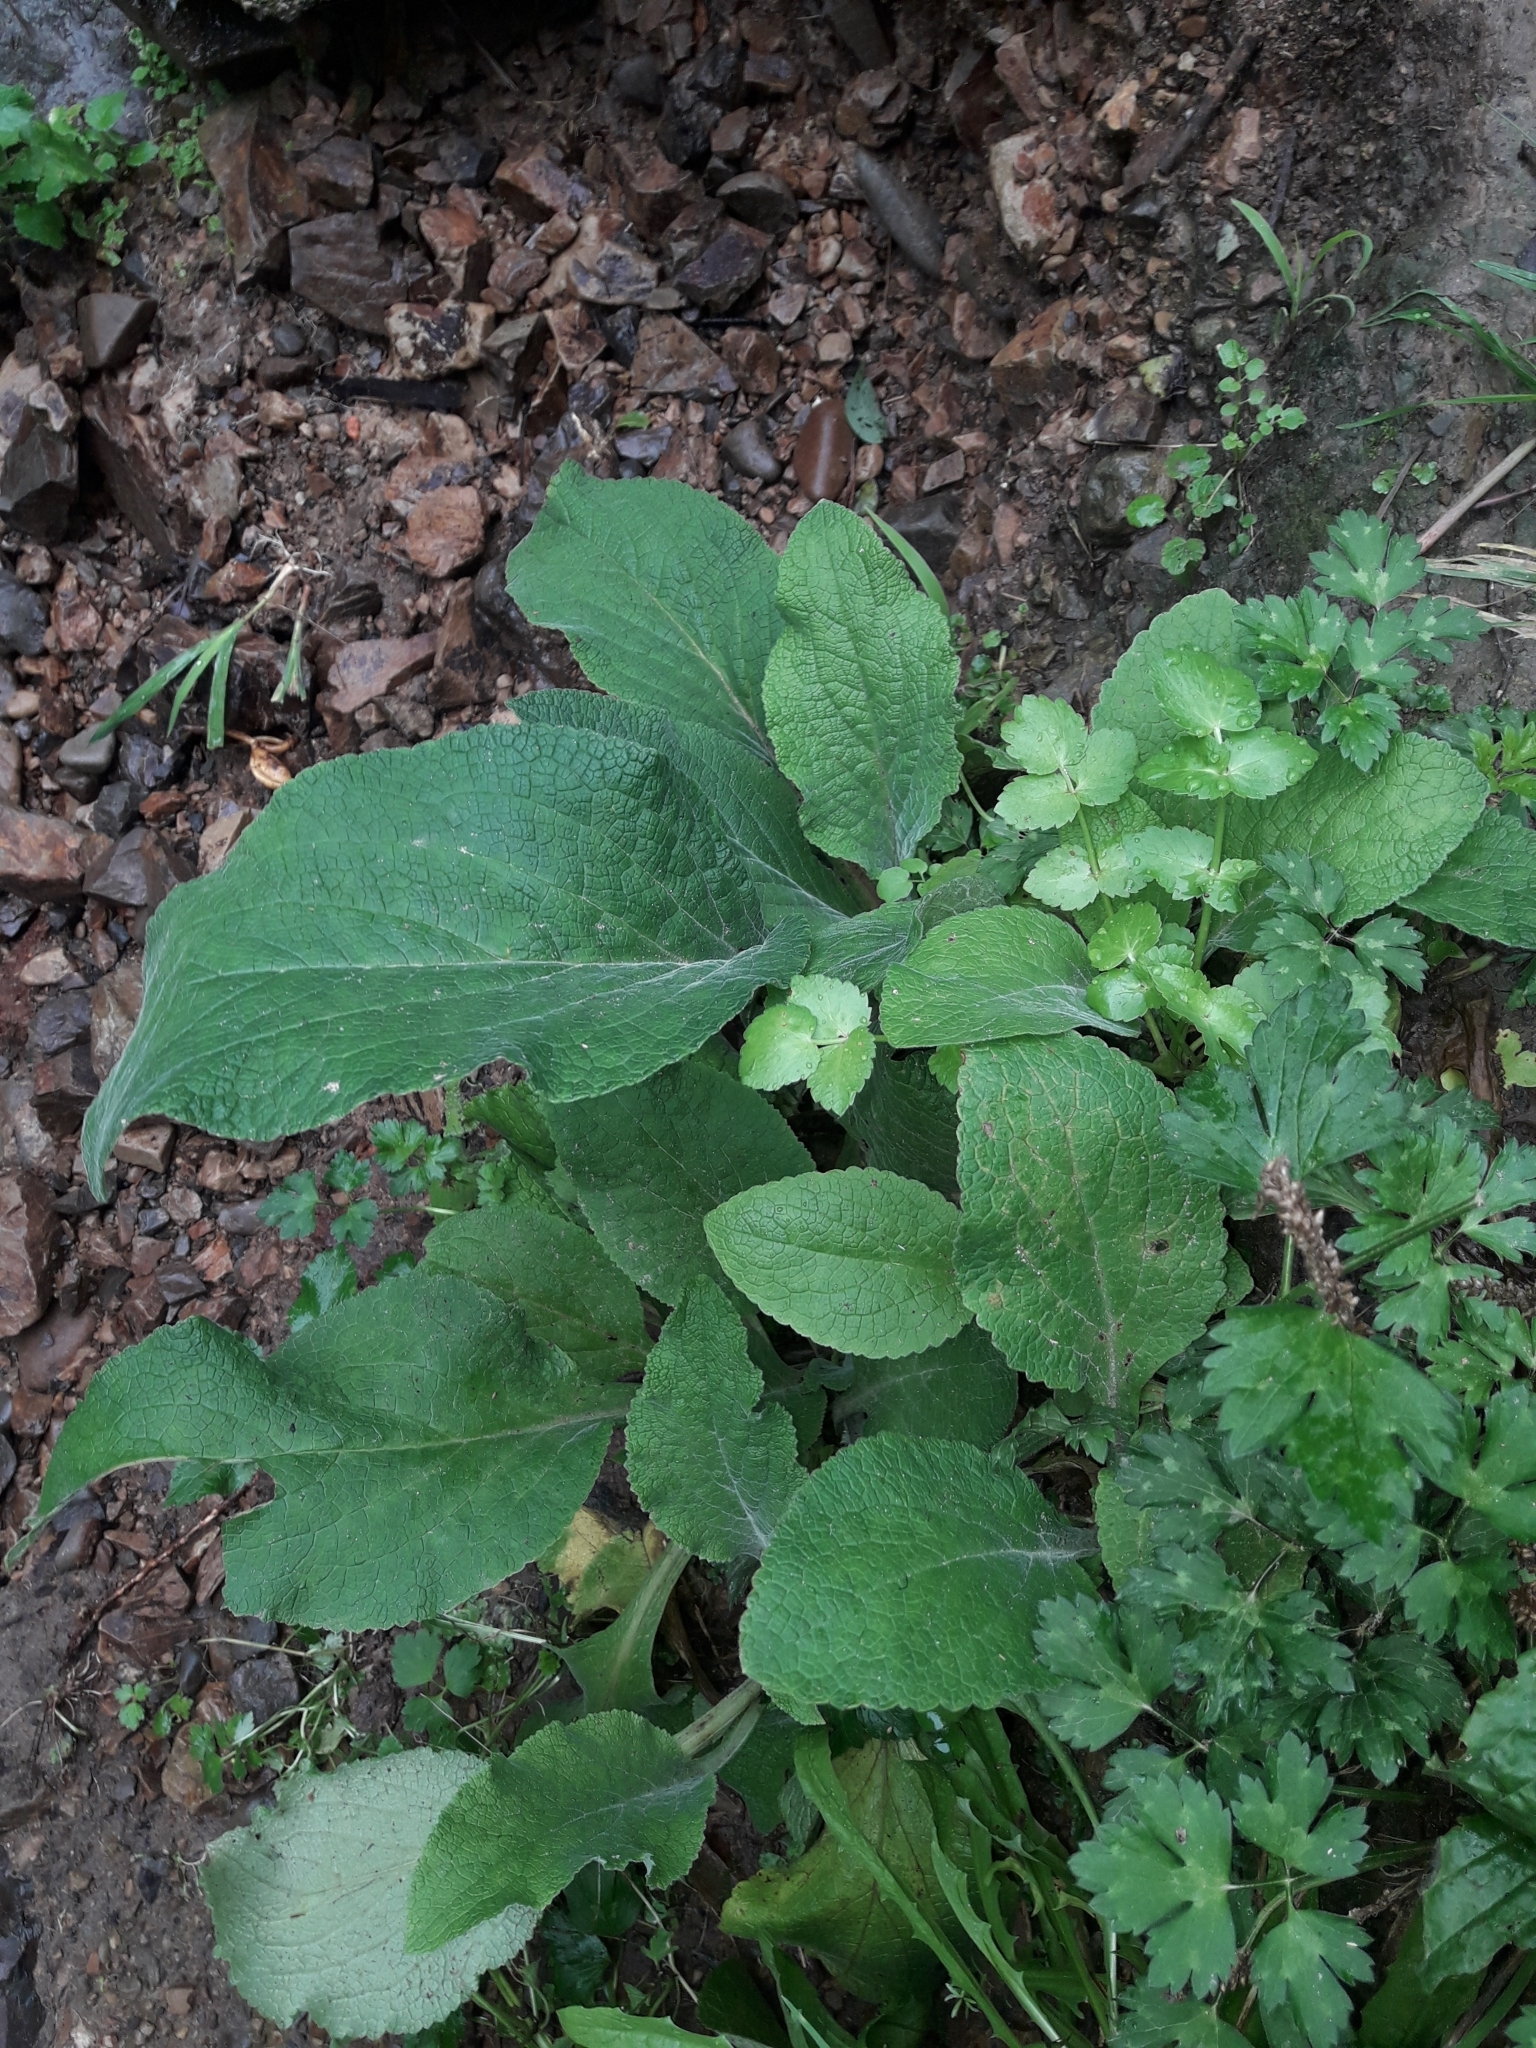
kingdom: Plantae
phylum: Tracheophyta
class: Magnoliopsida
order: Lamiales
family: Plantaginaceae
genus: Digitalis
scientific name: Digitalis purpurea
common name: Foxglove
